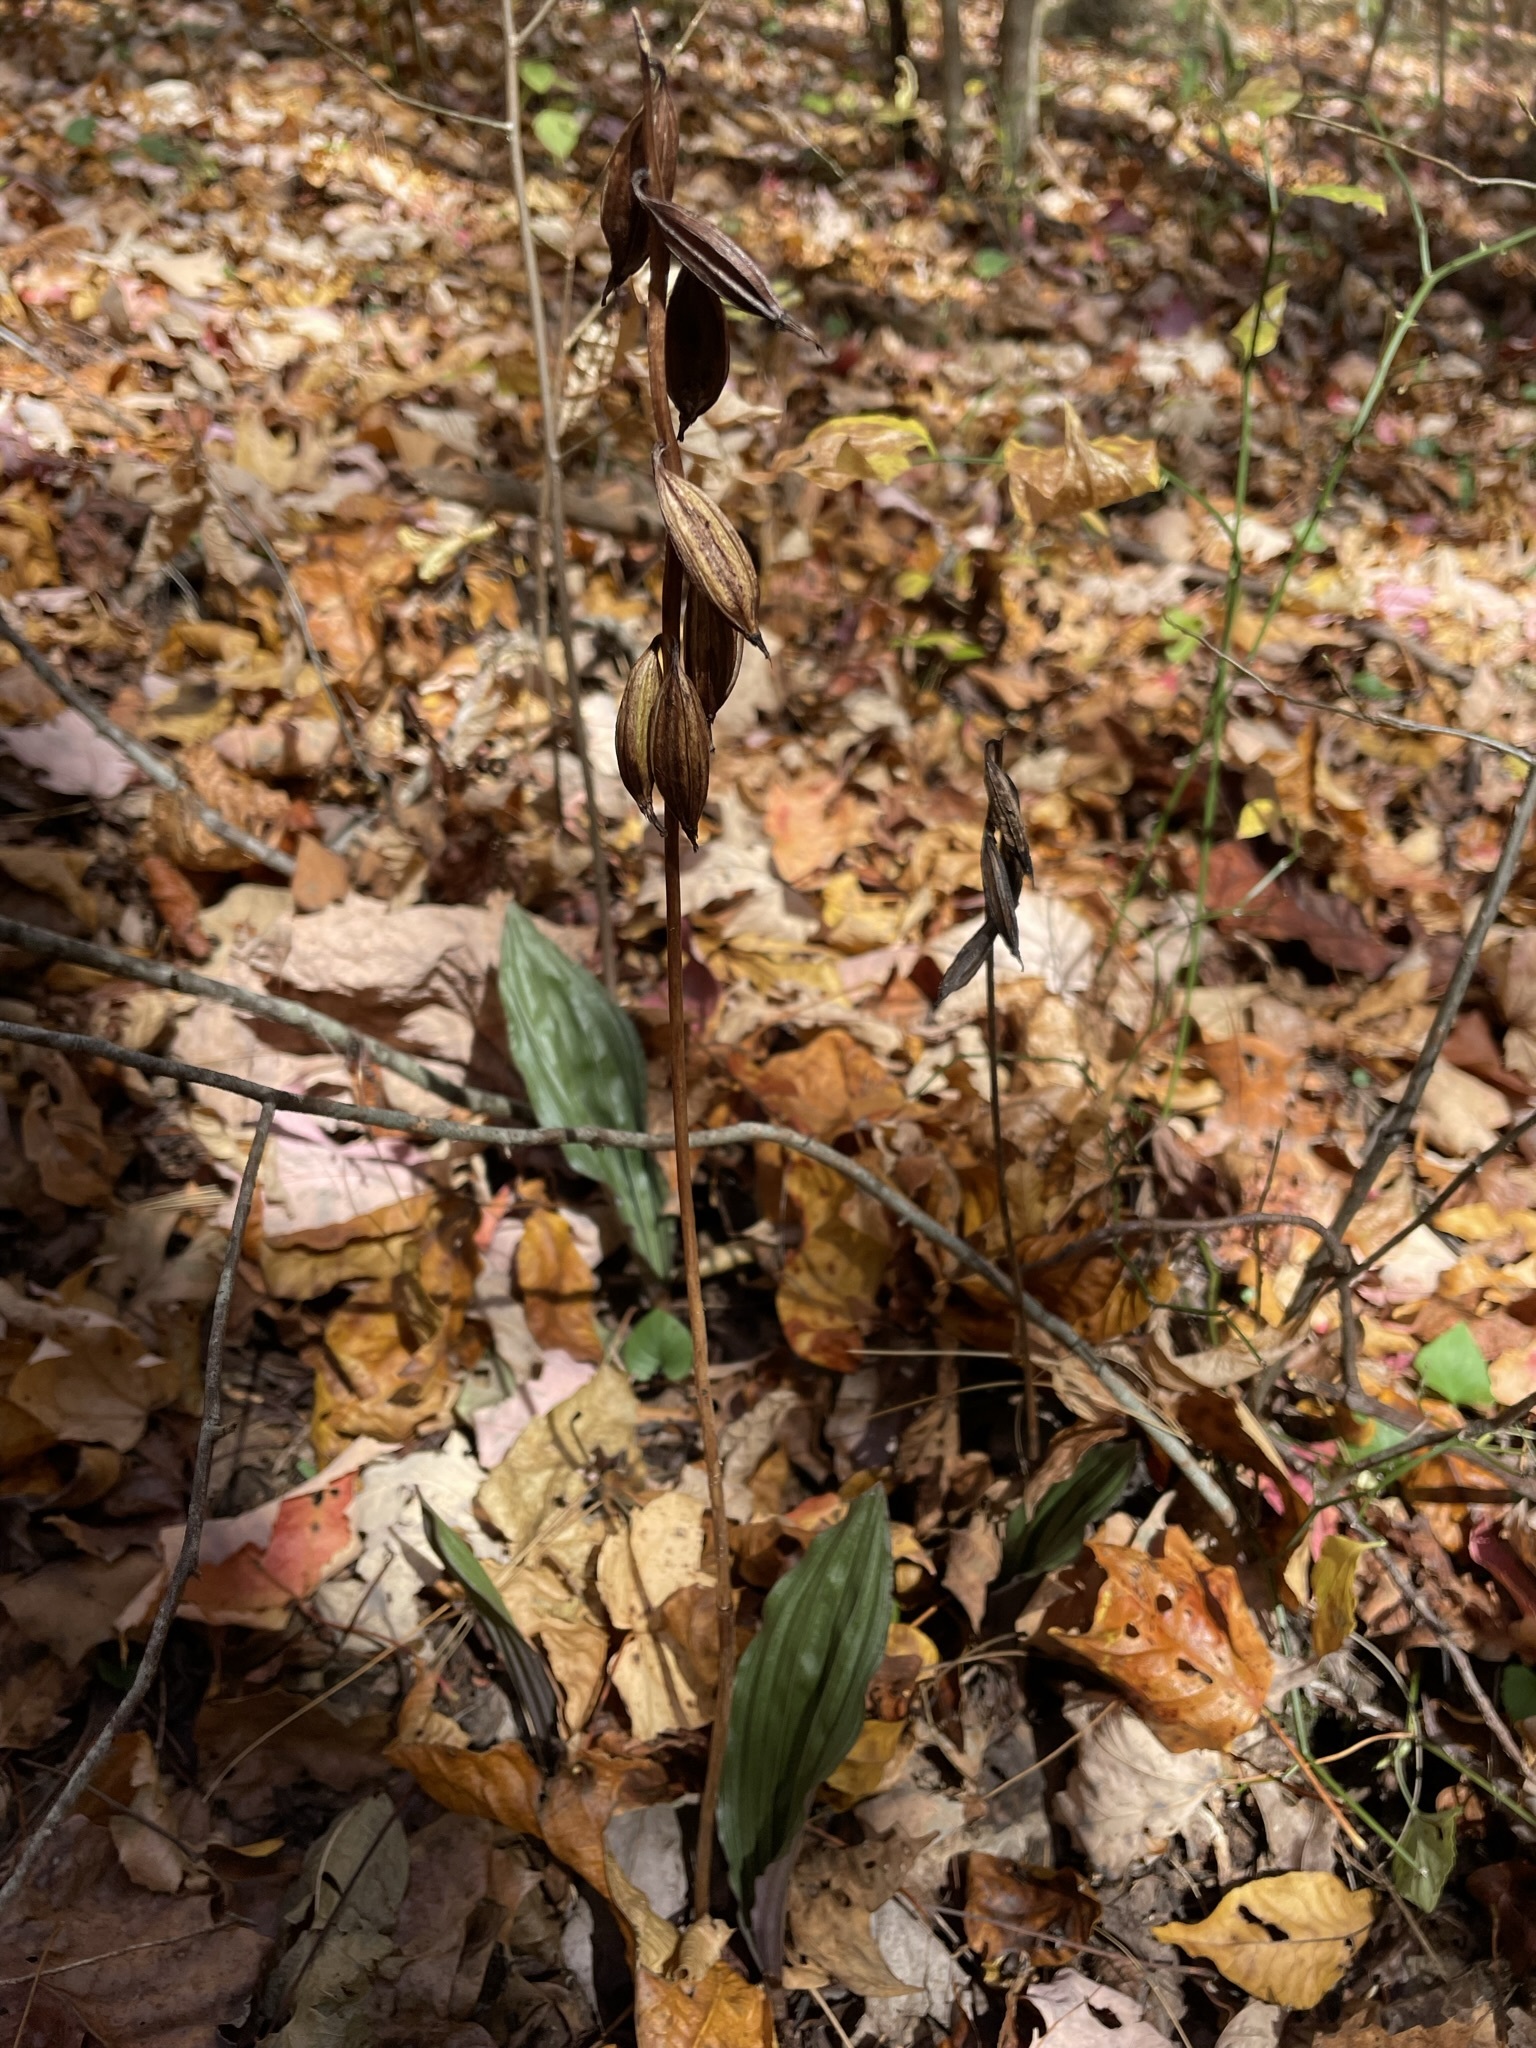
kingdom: Plantae
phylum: Tracheophyta
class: Liliopsida
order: Asparagales
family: Orchidaceae
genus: Aplectrum
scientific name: Aplectrum hyemale
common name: Adam-and-eve
